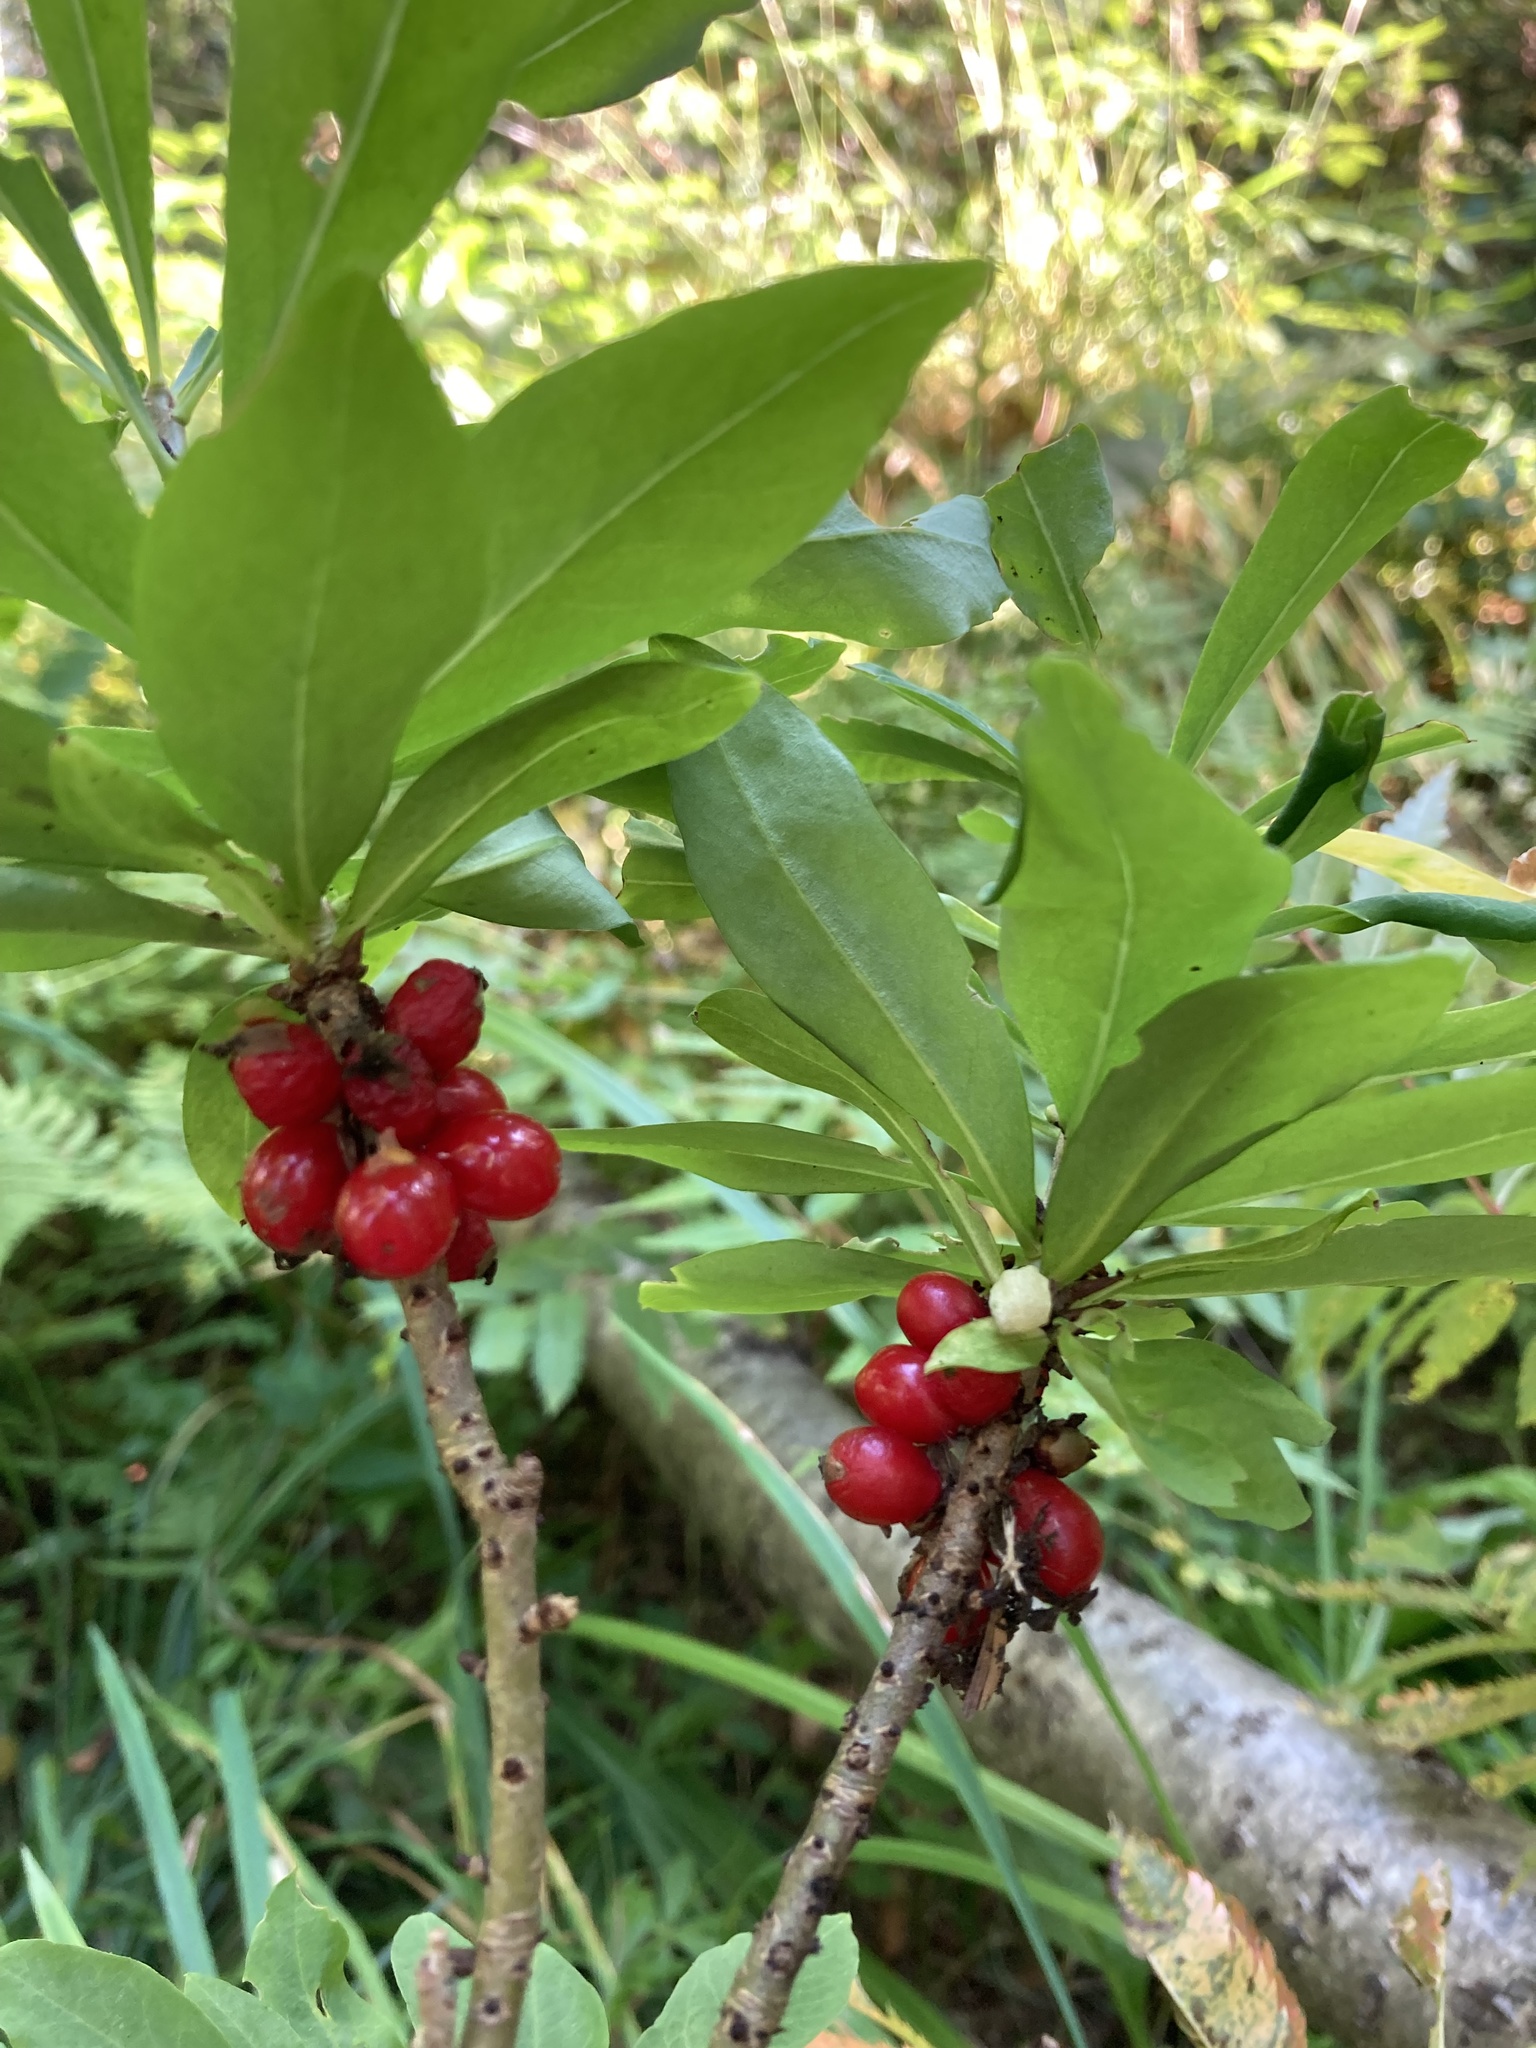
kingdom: Plantae
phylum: Tracheophyta
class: Magnoliopsida
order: Malvales
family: Thymelaeaceae
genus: Daphne
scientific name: Daphne mezereum
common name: Mezereon
